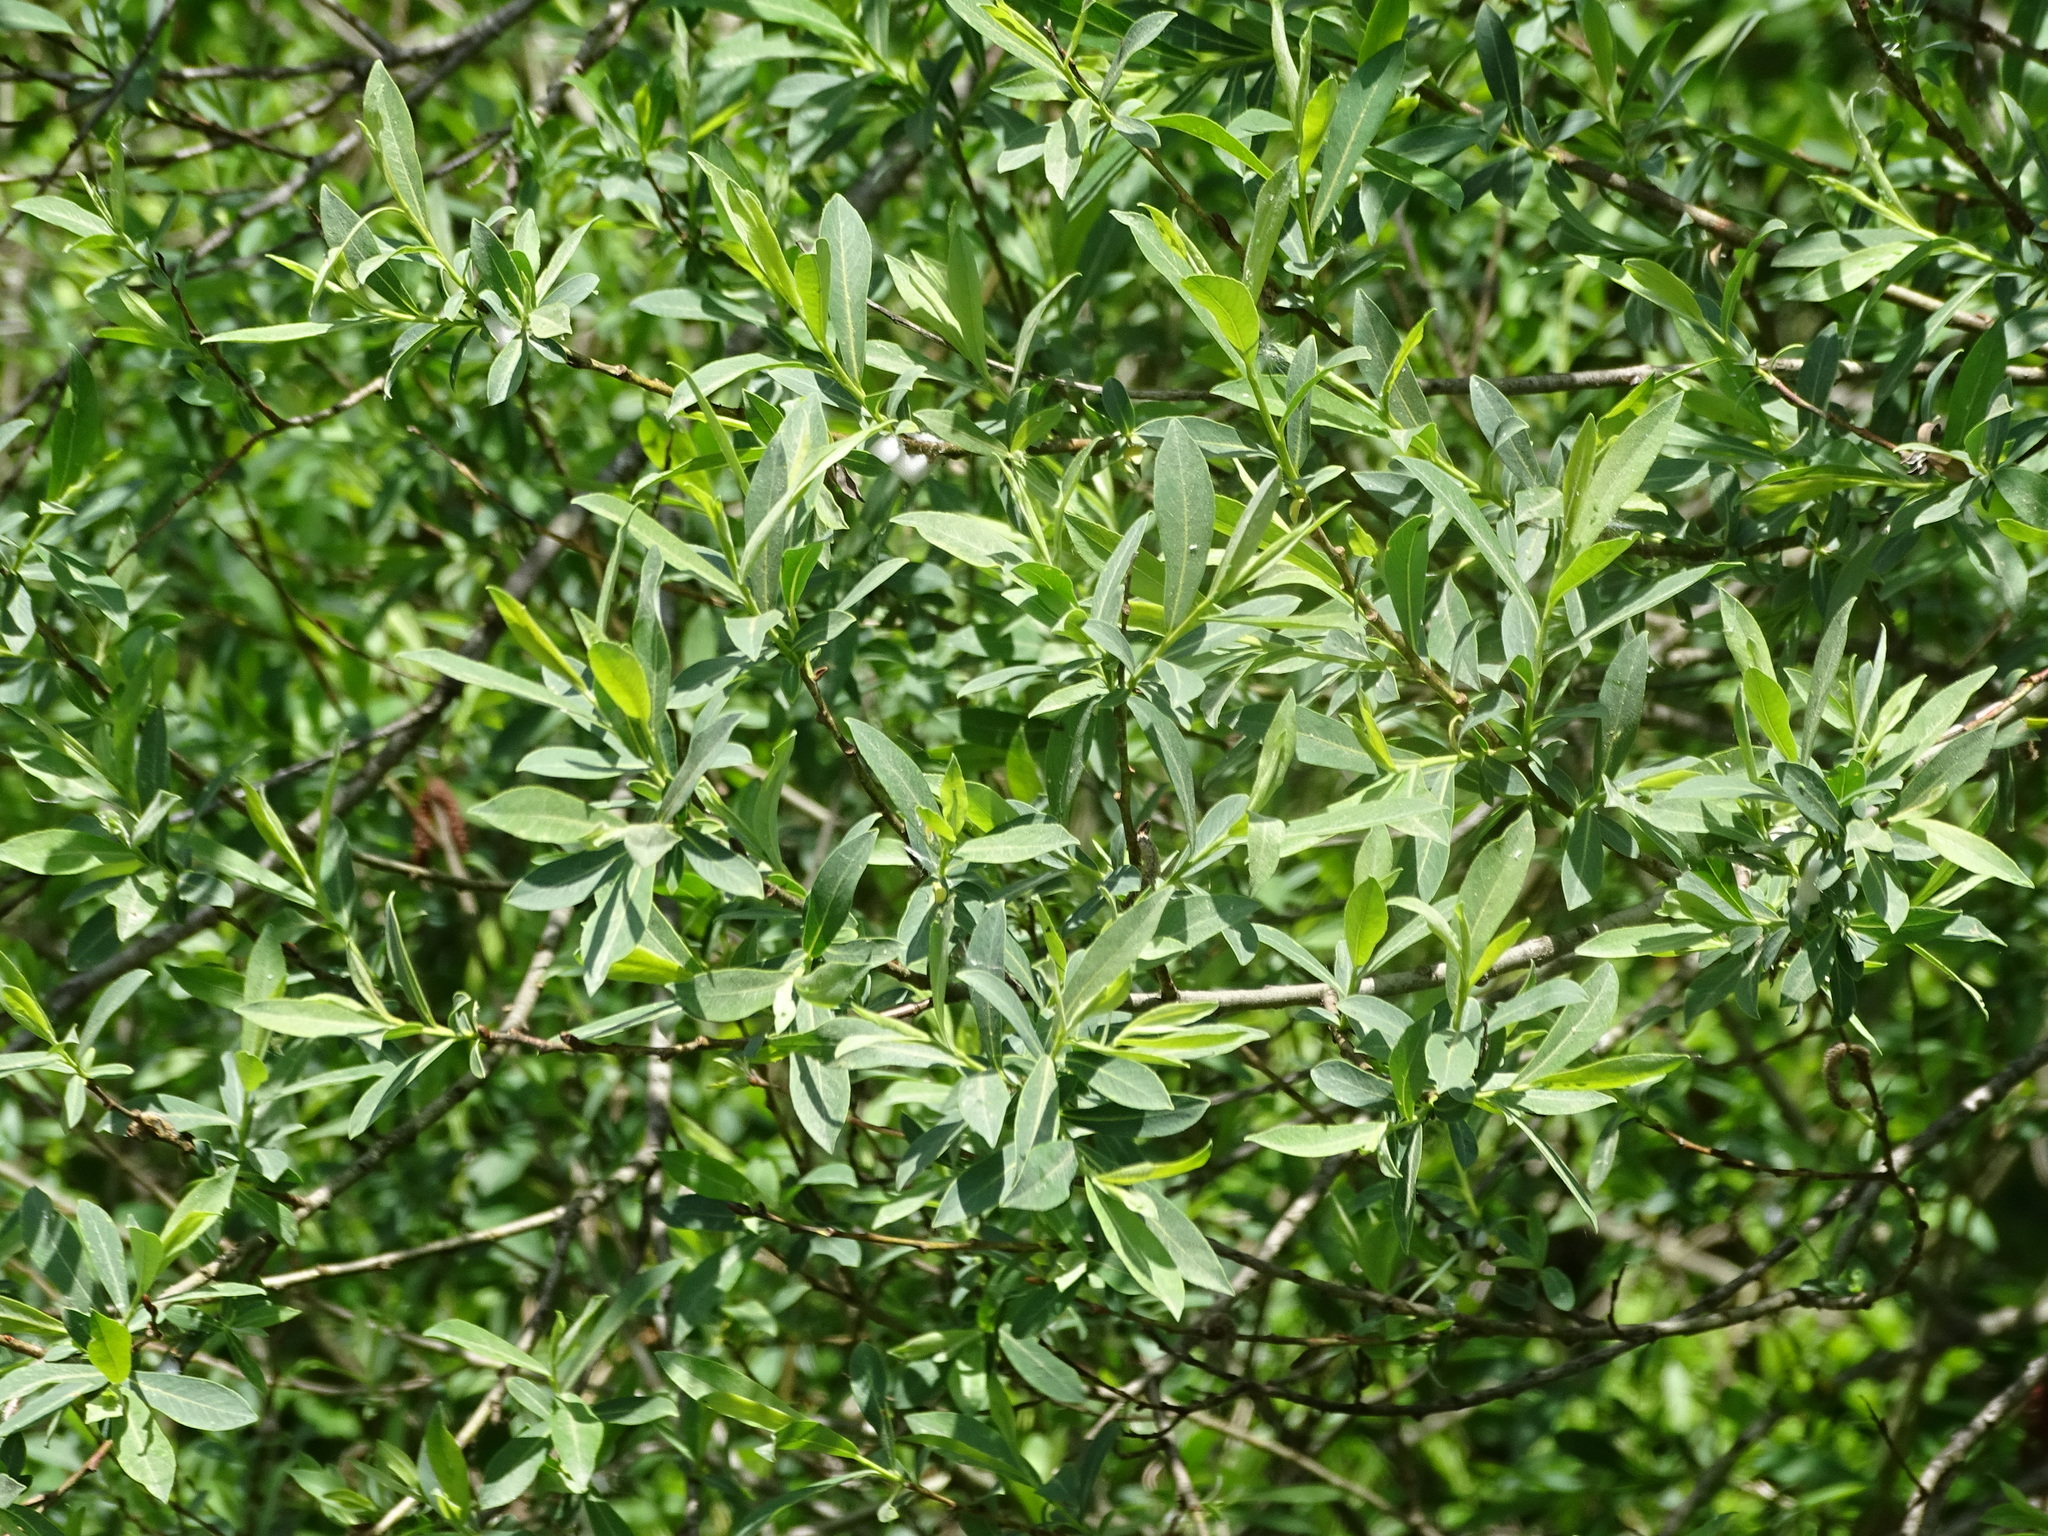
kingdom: Plantae
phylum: Tracheophyta
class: Magnoliopsida
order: Malpighiales
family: Salicaceae
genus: Salix
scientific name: Salix purpurea
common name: Purple willow
